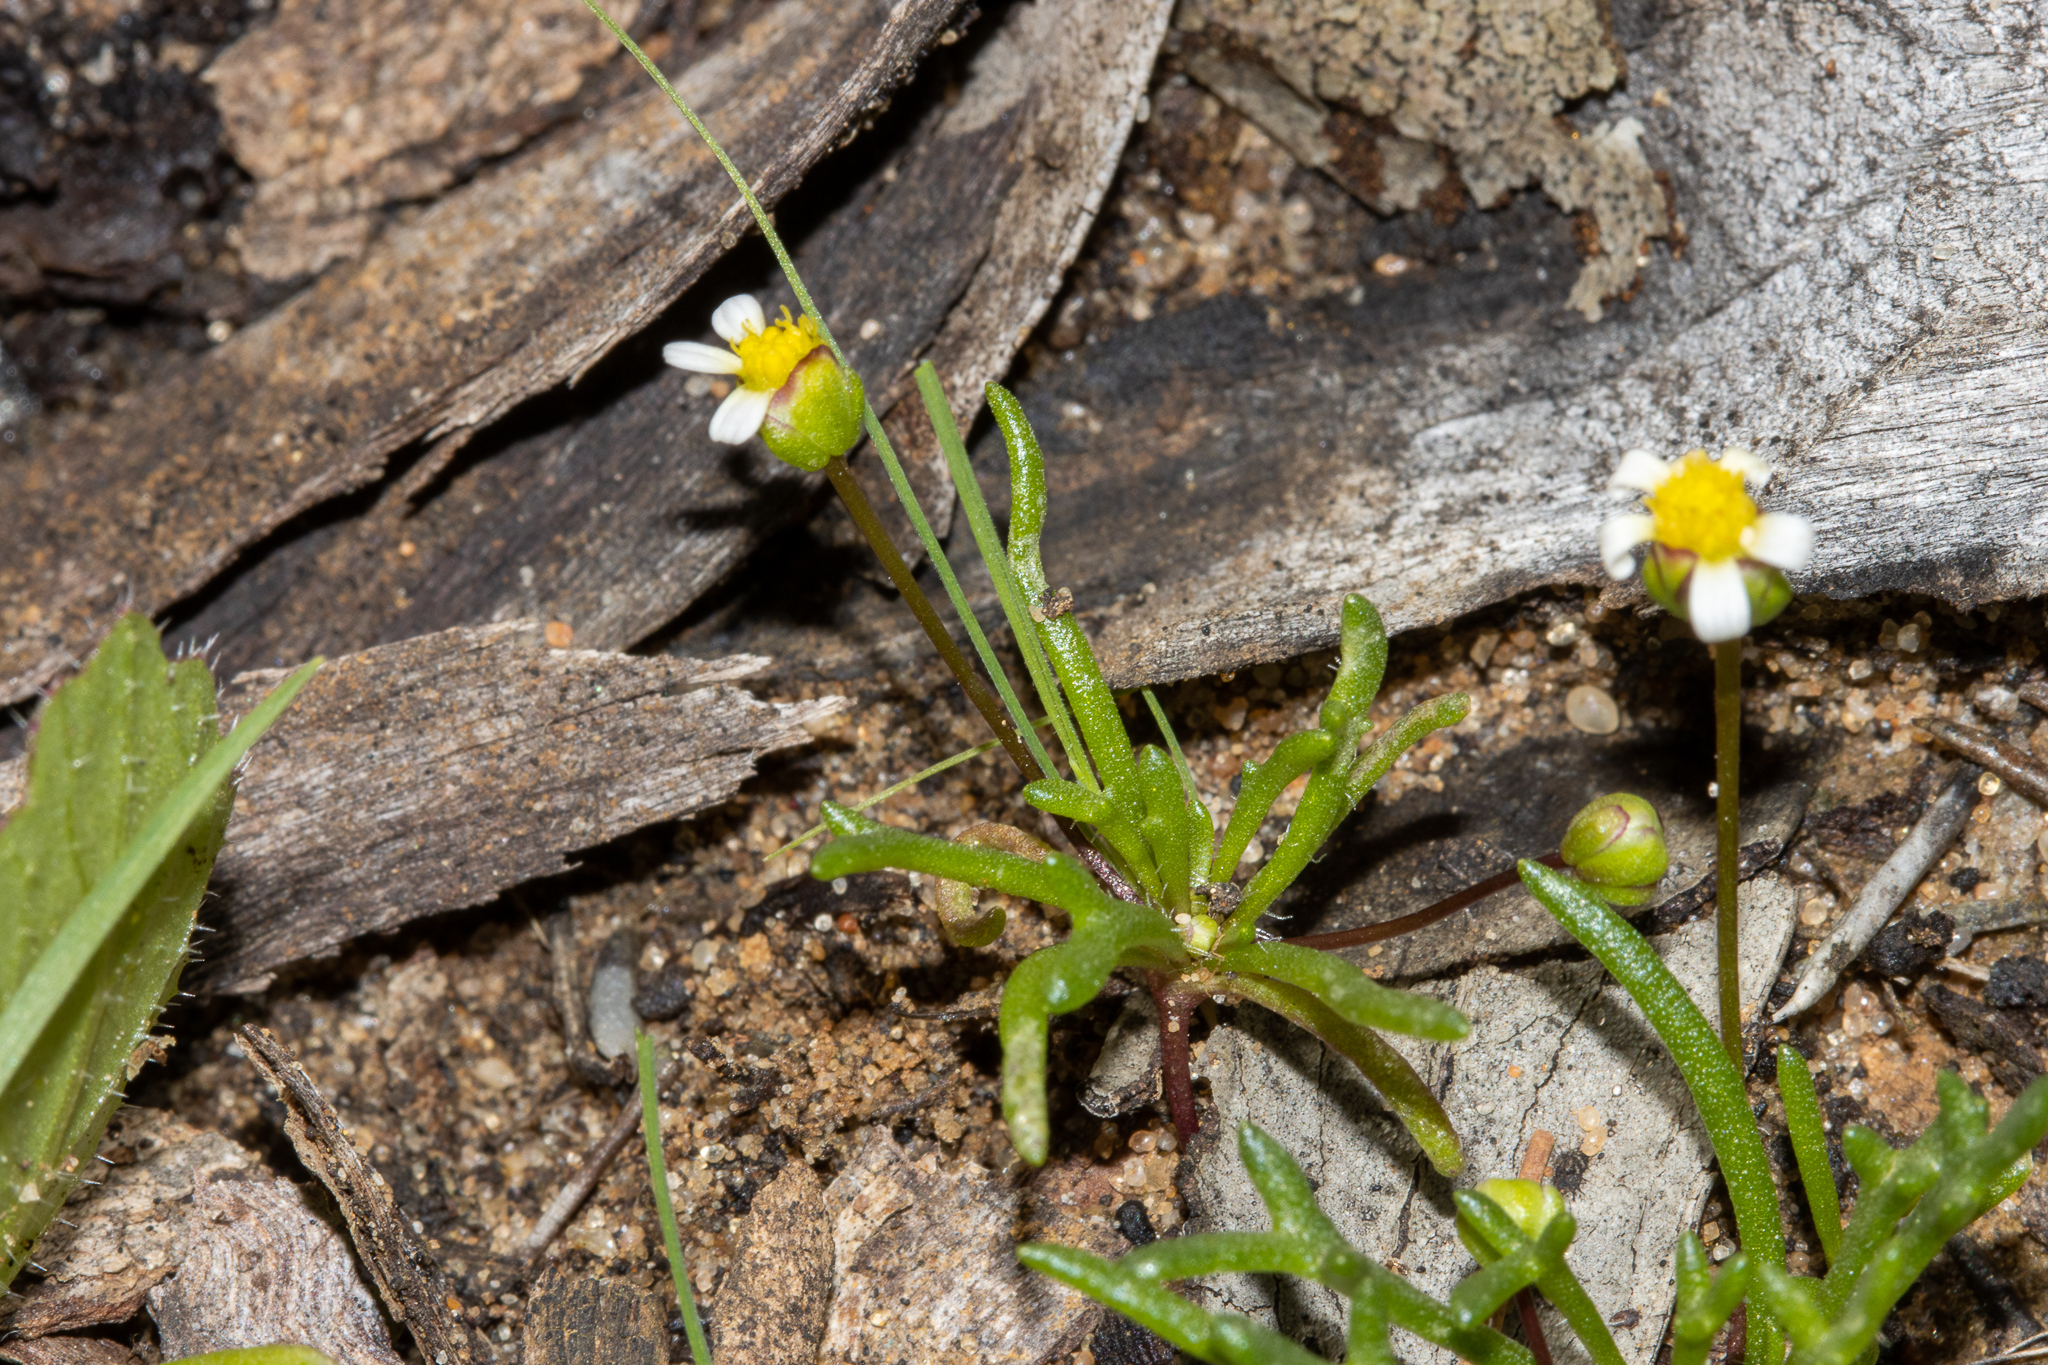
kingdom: Plantae
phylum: Tracheophyta
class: Magnoliopsida
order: Asterales
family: Asteraceae
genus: Brachyscome
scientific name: Brachyscome lineariloba
